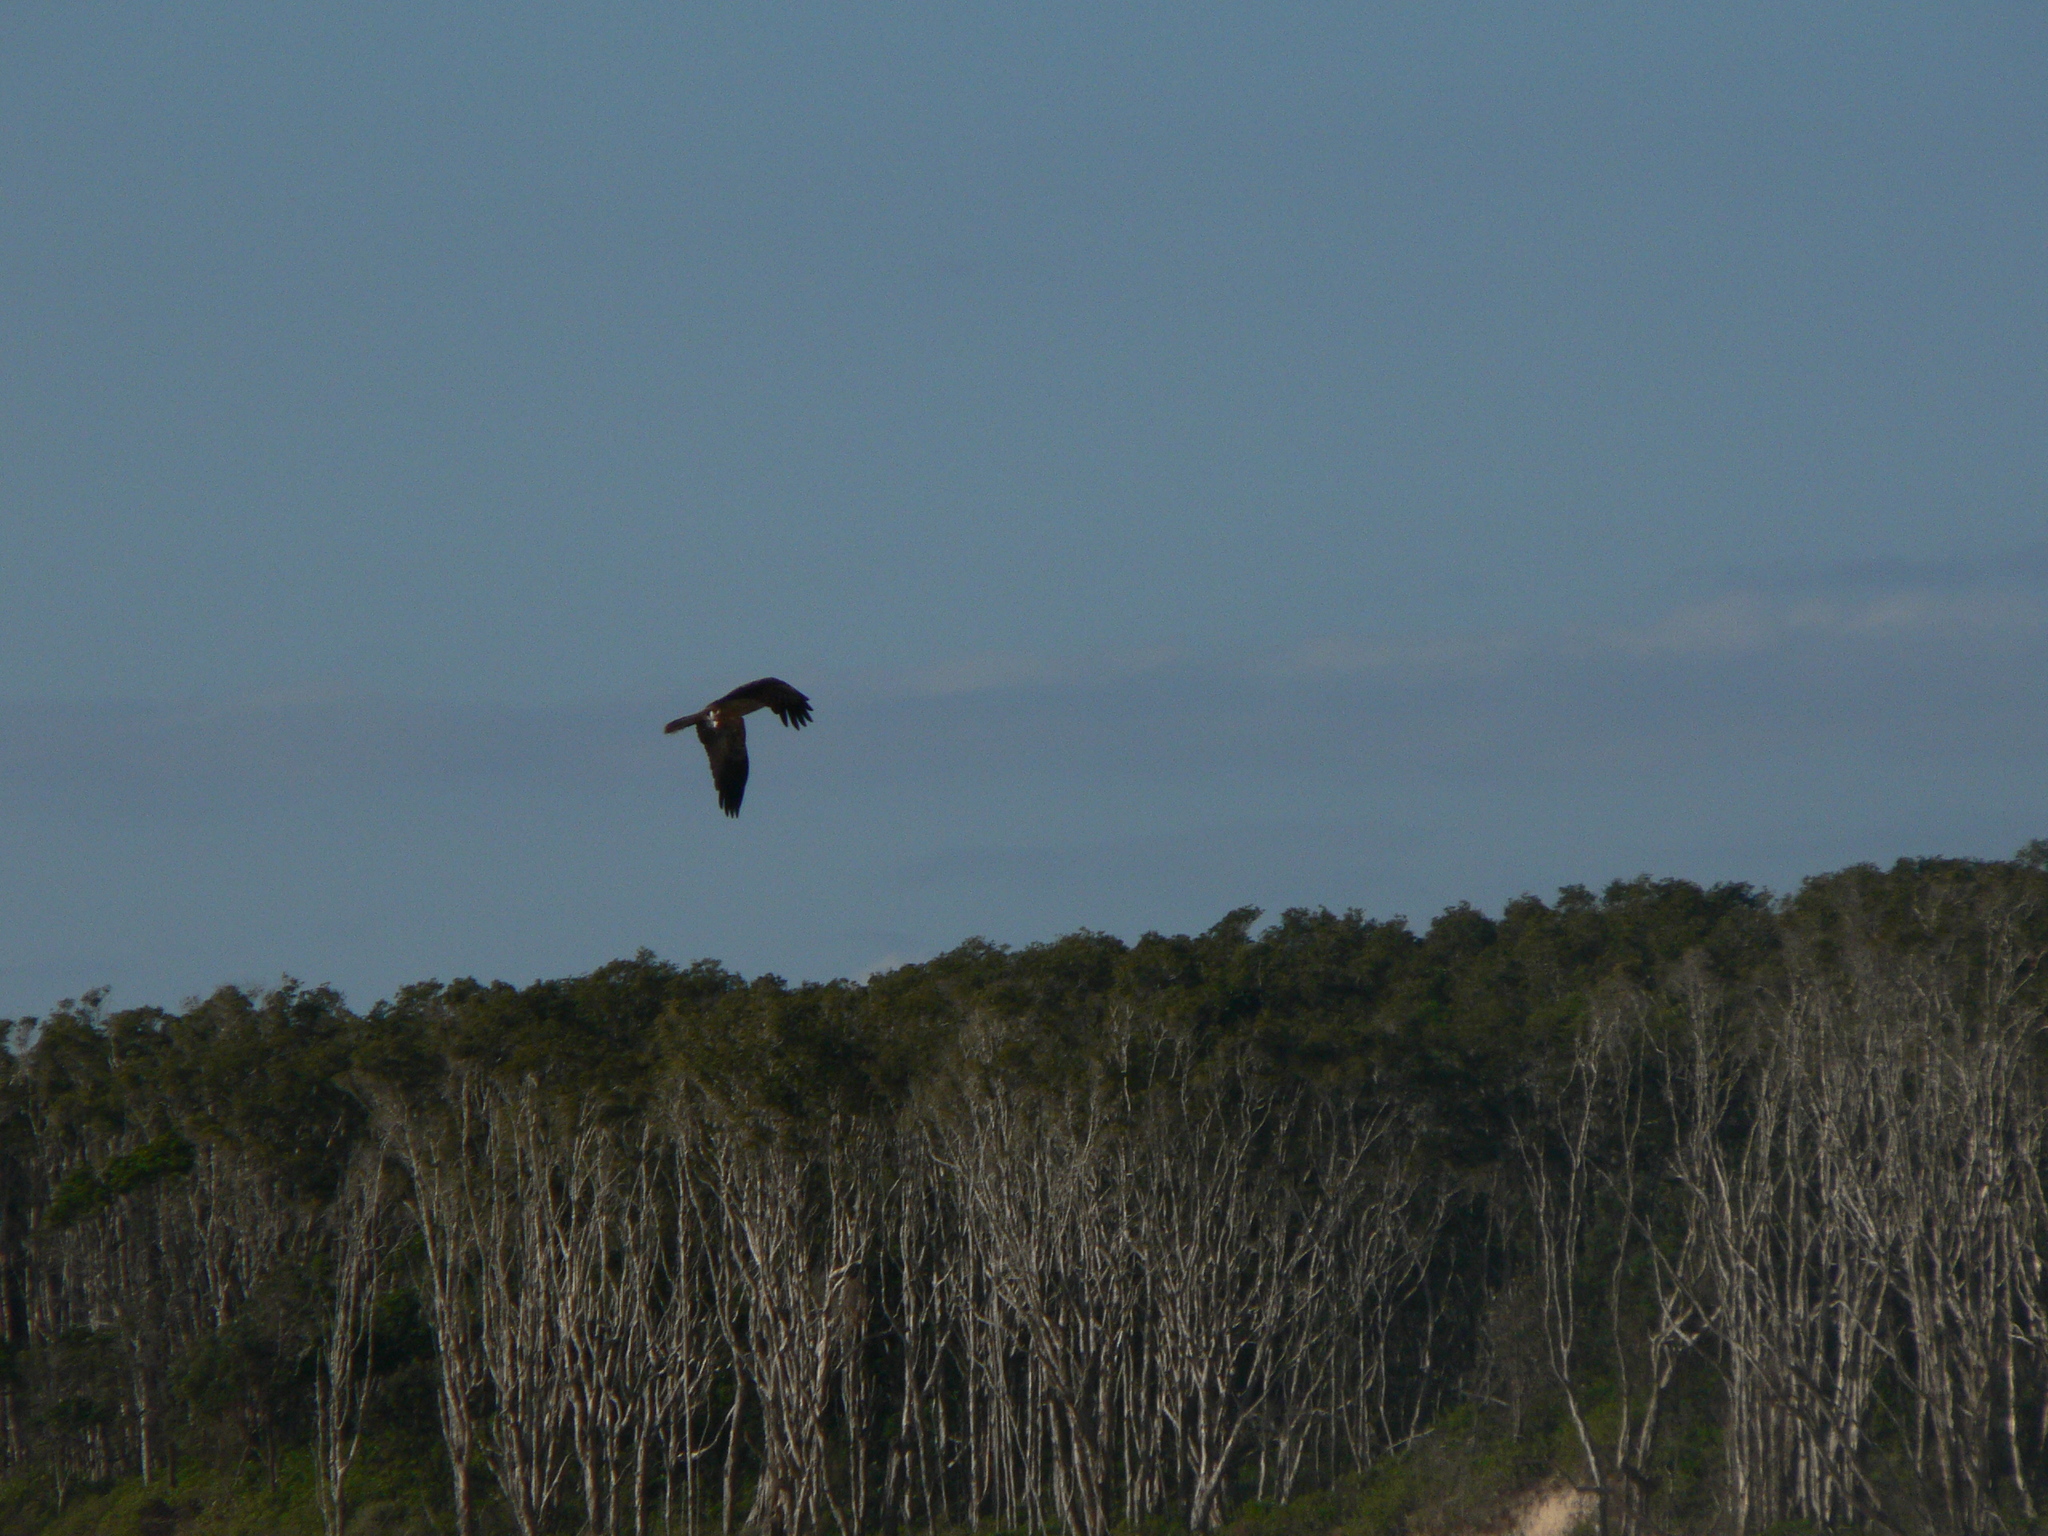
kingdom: Animalia
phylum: Chordata
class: Aves
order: Accipitriformes
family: Accipitridae
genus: Haliastur
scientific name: Haliastur sphenurus
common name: Whistling kite
